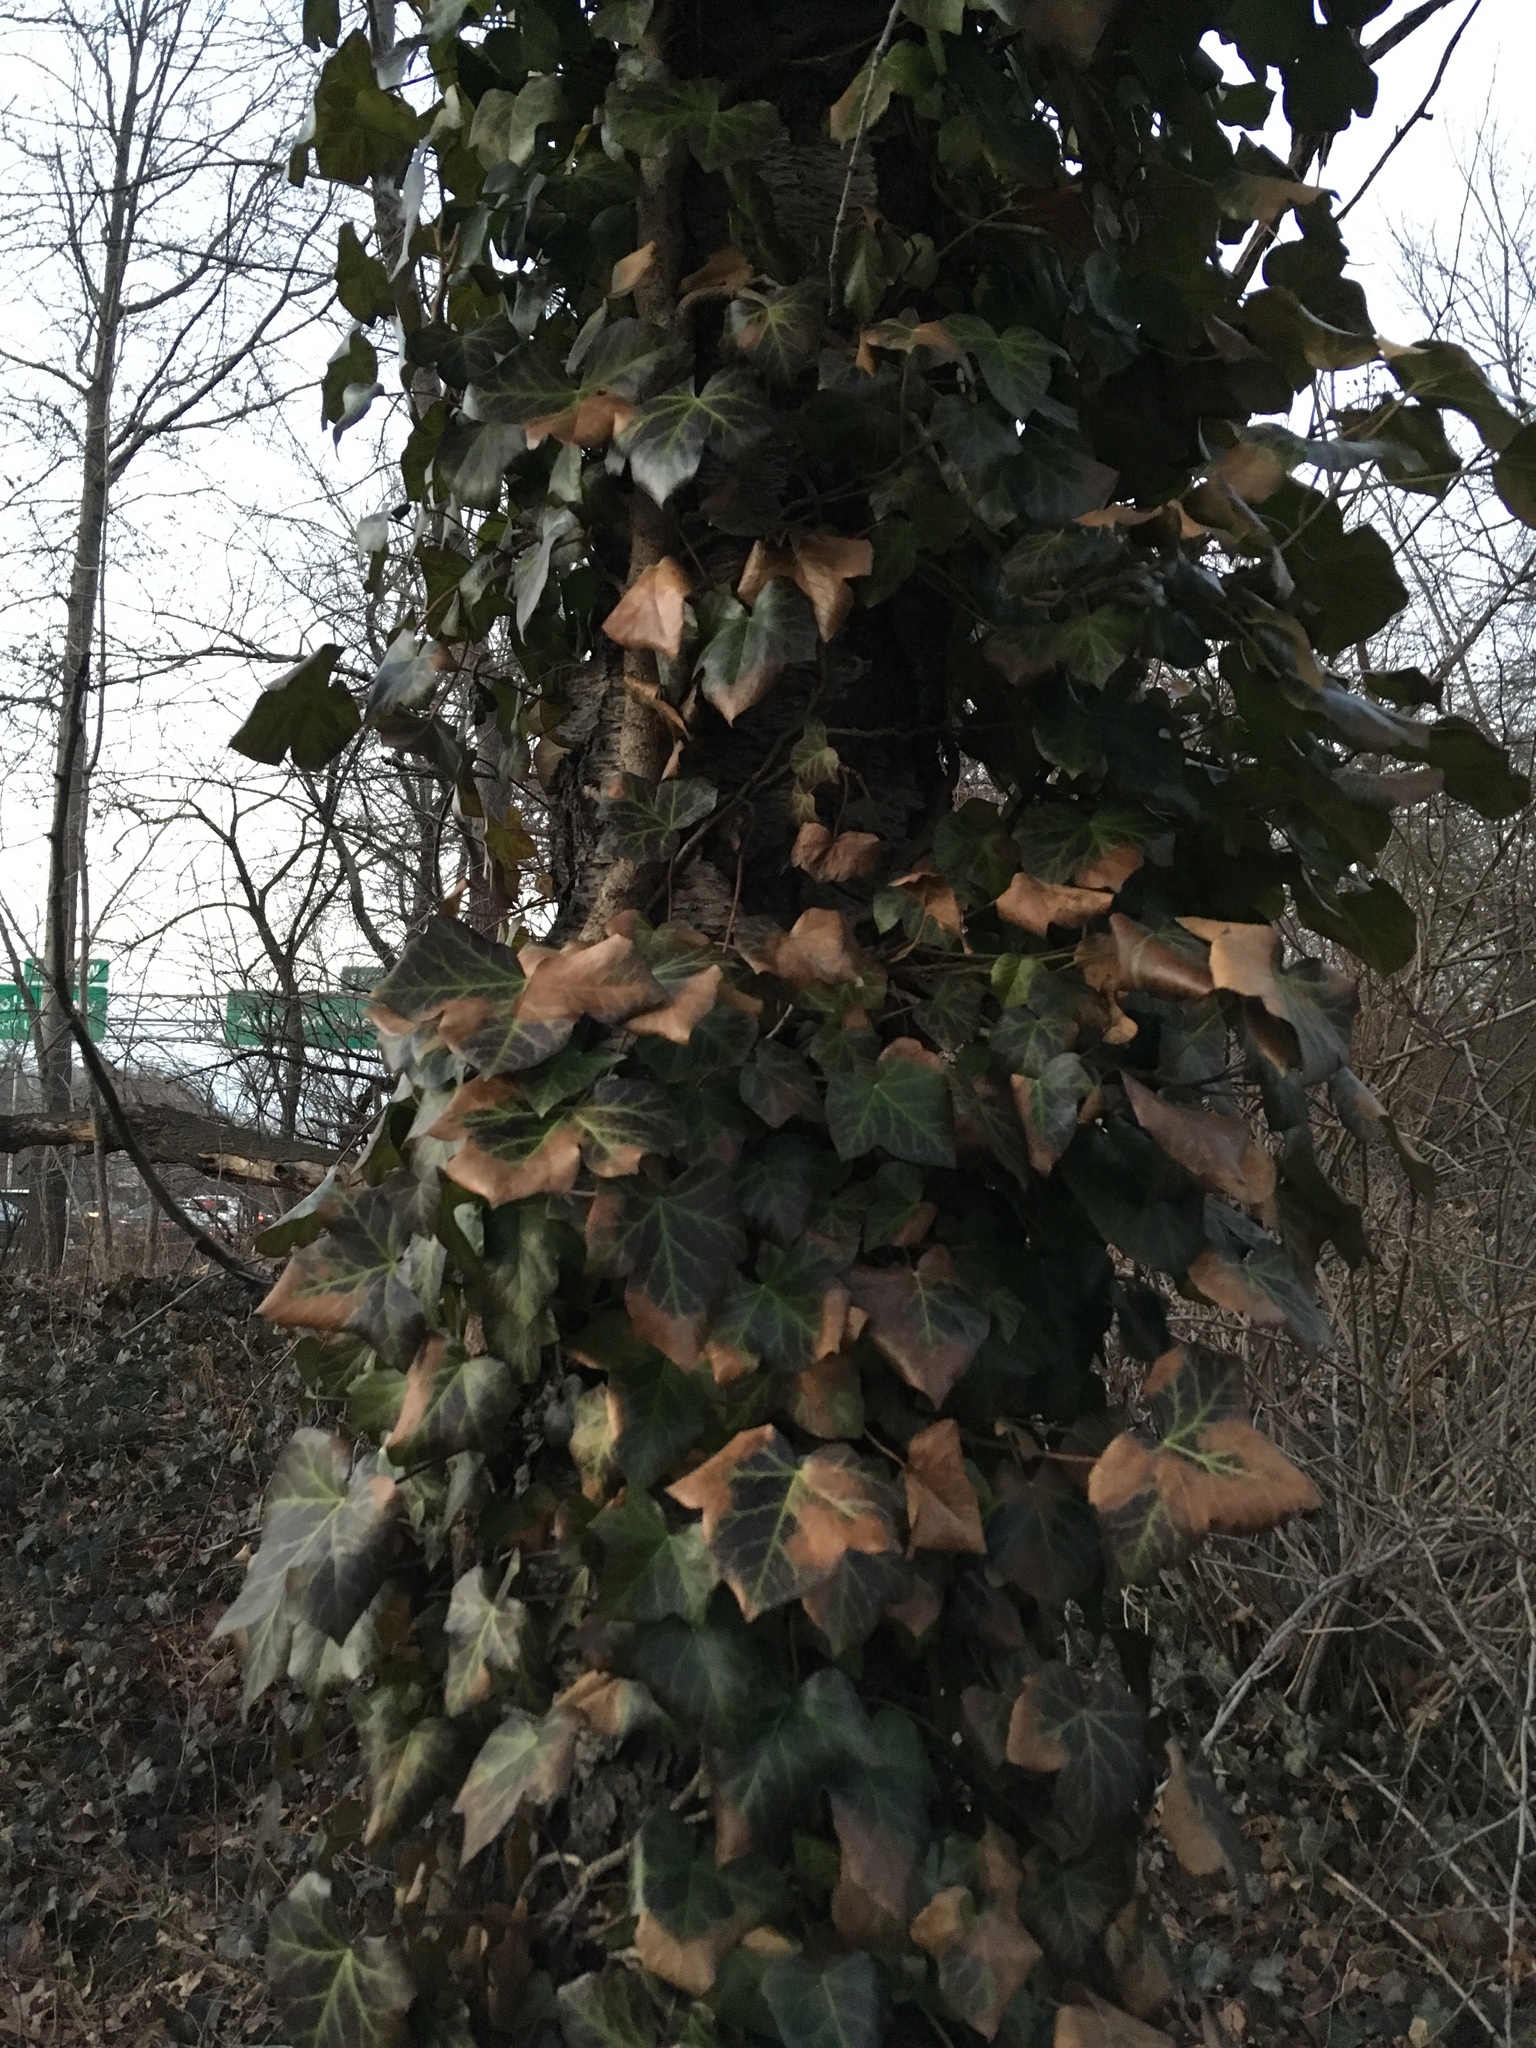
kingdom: Plantae
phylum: Tracheophyta
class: Magnoliopsida
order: Apiales
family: Araliaceae
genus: Hedera
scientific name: Hedera helix
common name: Ivy
